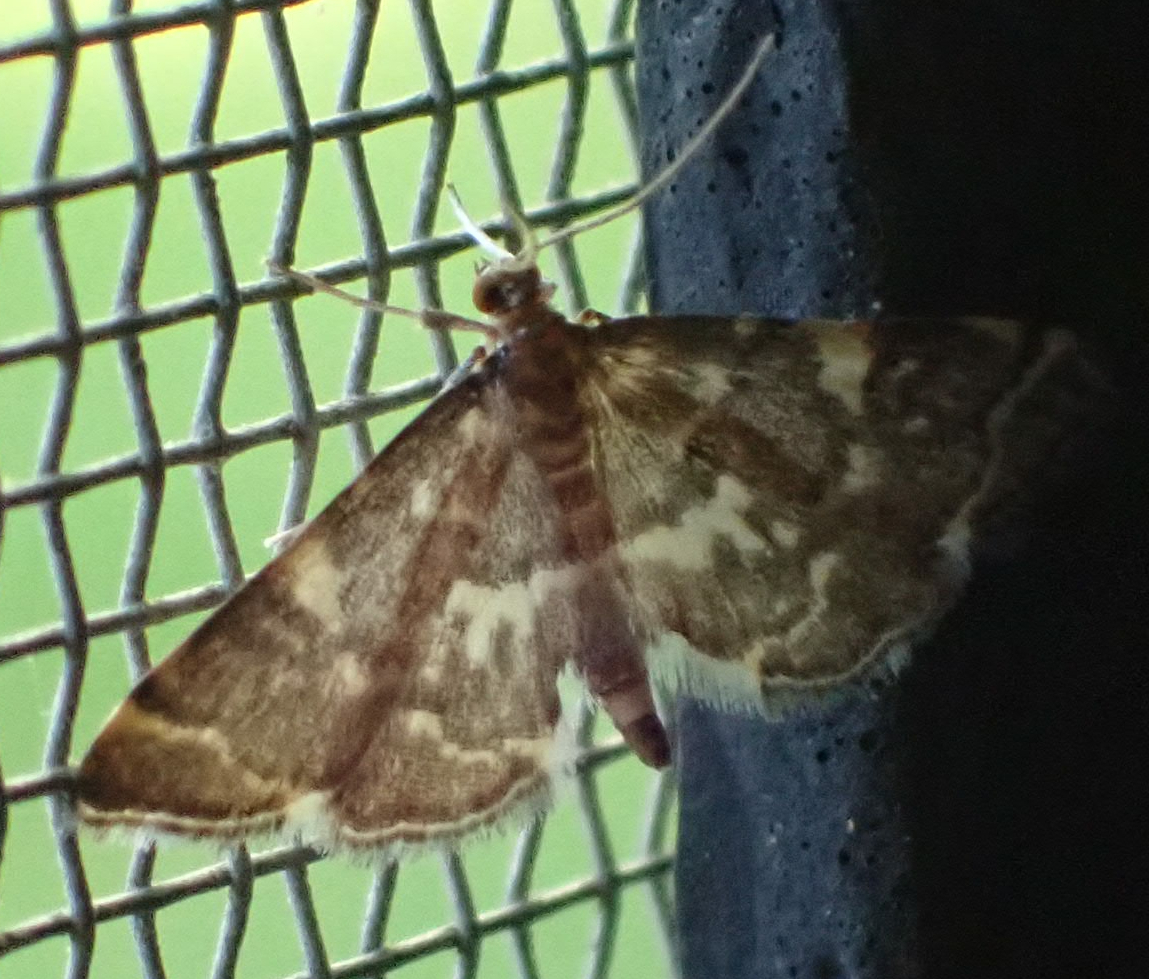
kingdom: Animalia
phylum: Arthropoda
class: Insecta
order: Lepidoptera
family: Crambidae
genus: Anageshna
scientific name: Anageshna primordialis
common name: Yellow-spotted webworm moth
